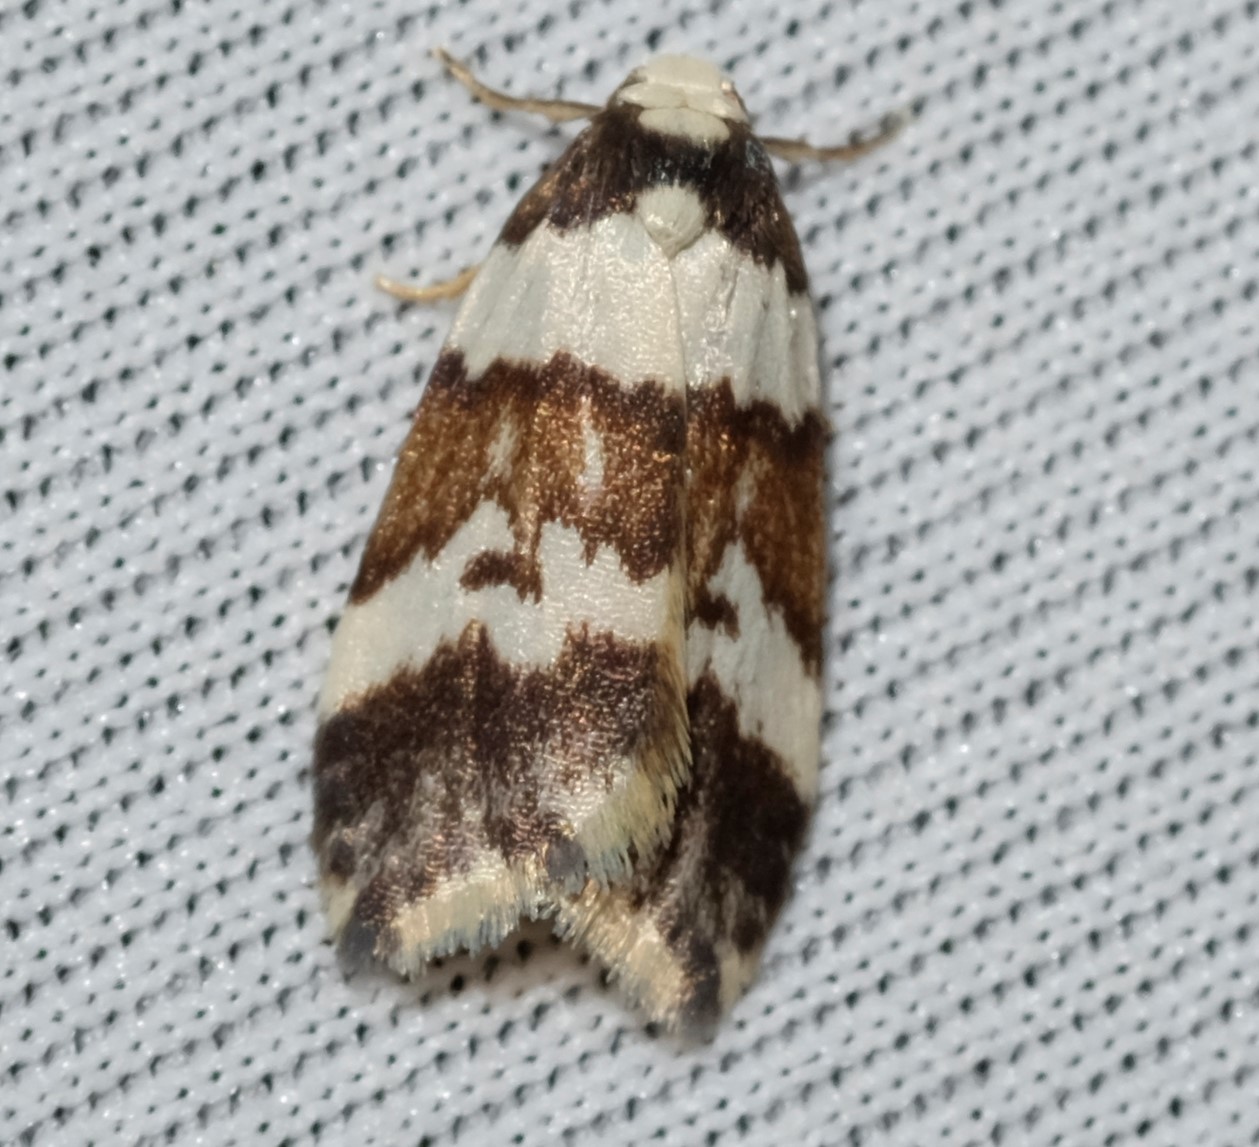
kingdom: Animalia
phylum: Arthropoda
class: Insecta
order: Lepidoptera
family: Erebidae
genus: Halone
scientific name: Halone sejuncta
